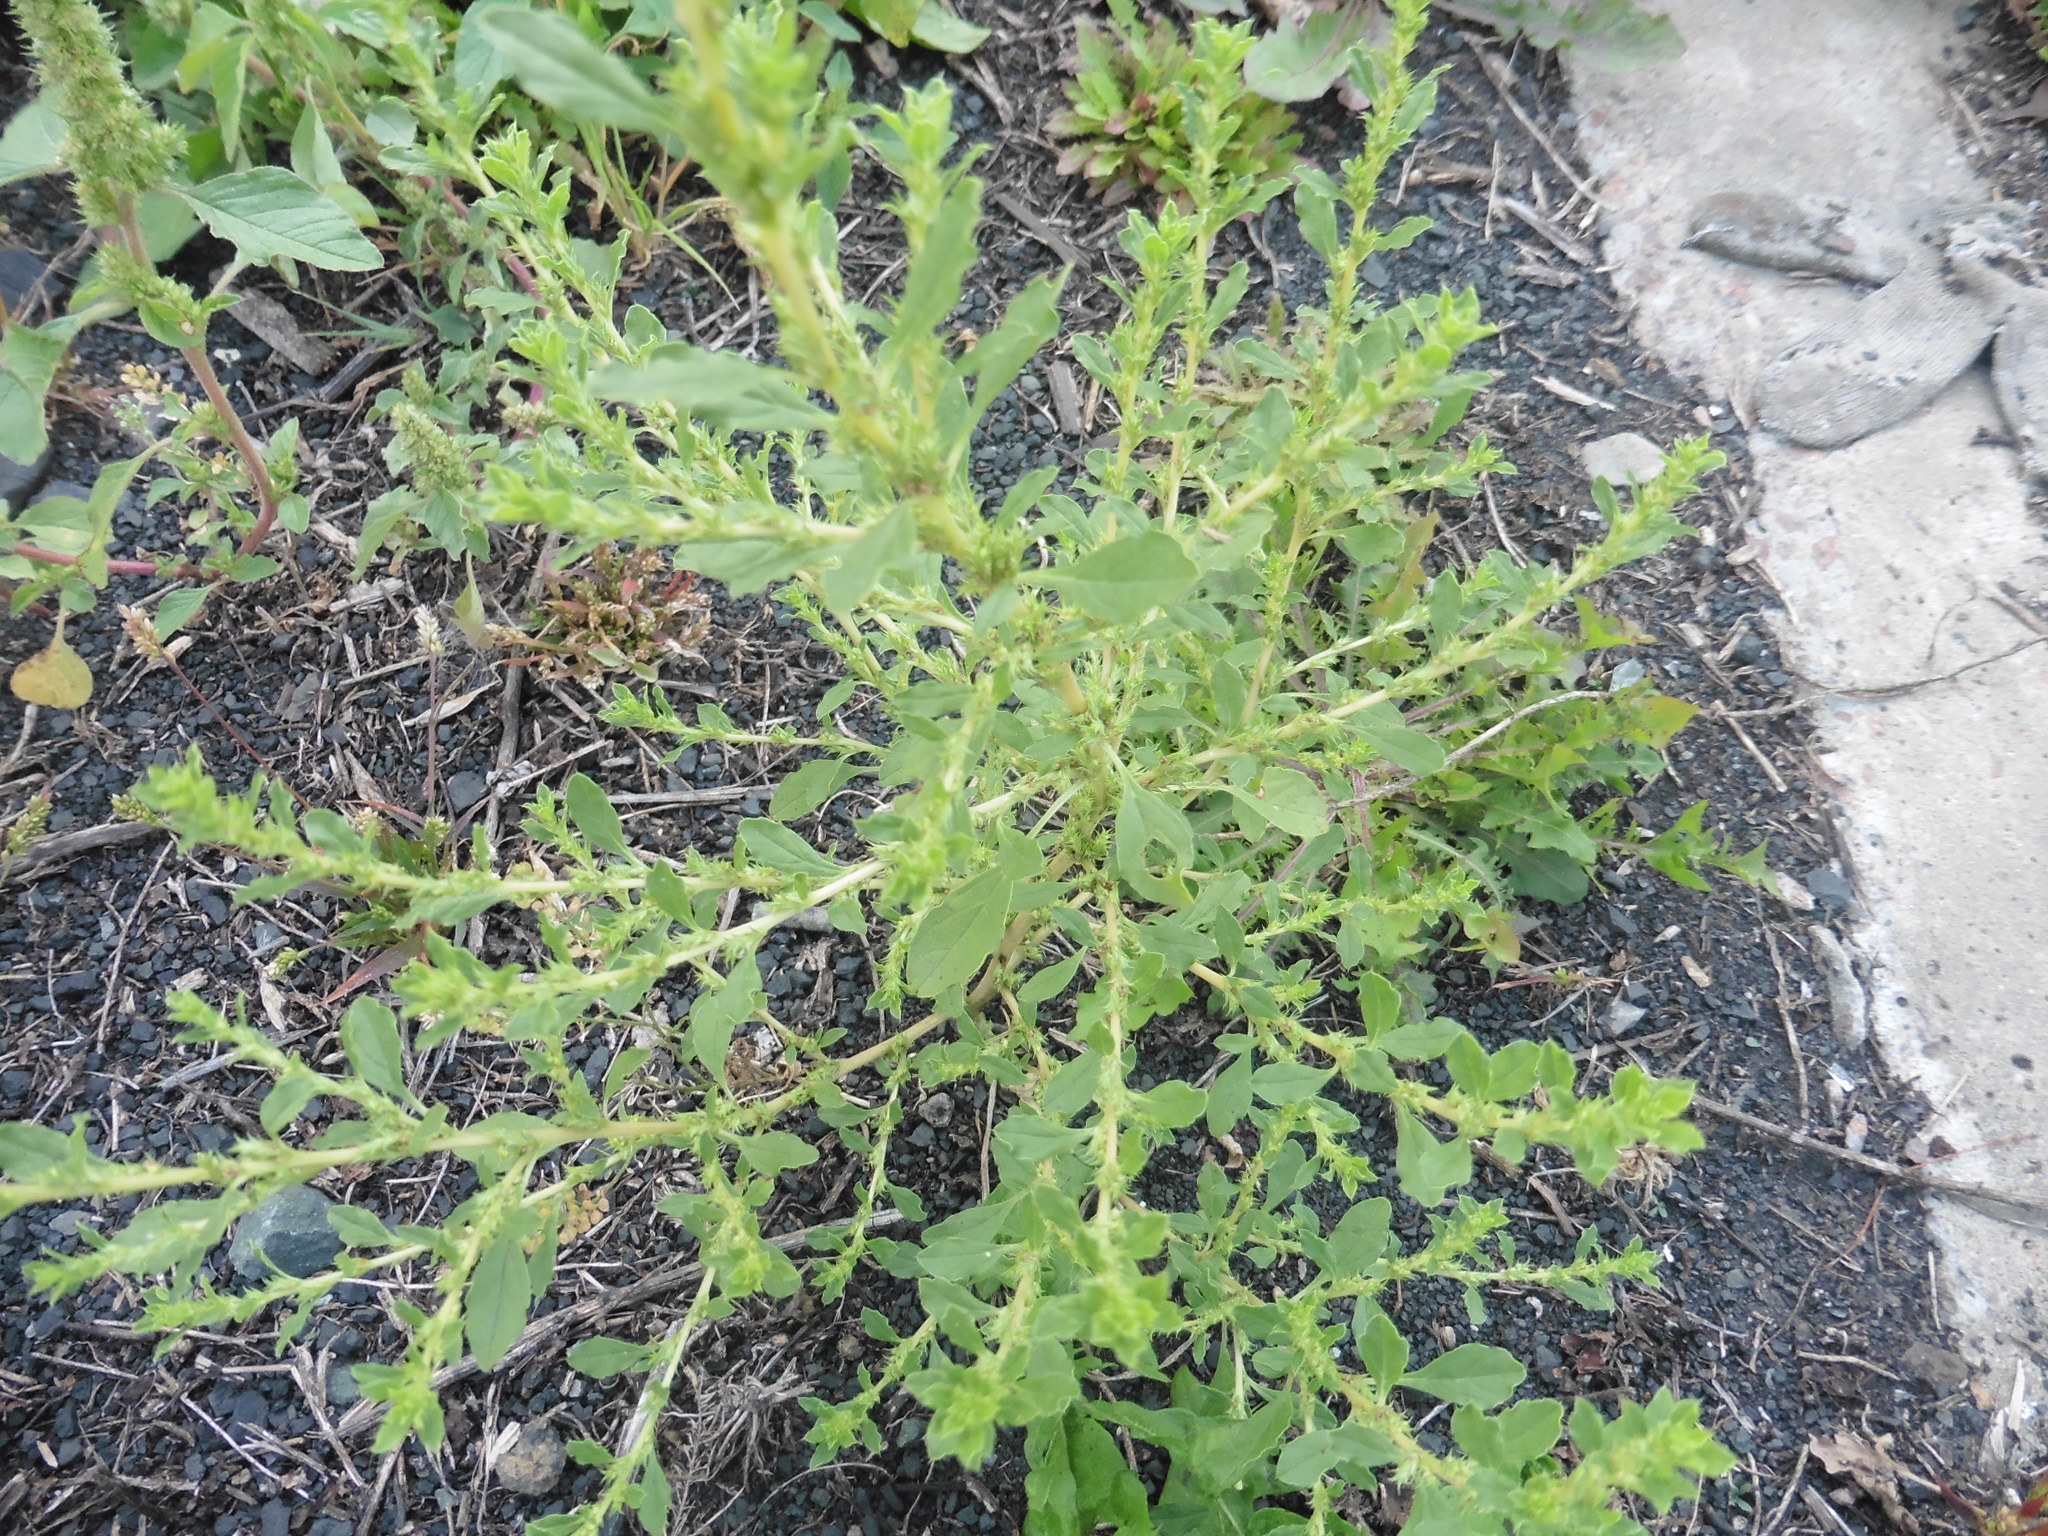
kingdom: Plantae
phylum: Tracheophyta
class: Magnoliopsida
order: Caryophyllales
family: Amaranthaceae
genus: Amaranthus
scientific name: Amaranthus albus
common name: White pigweed
